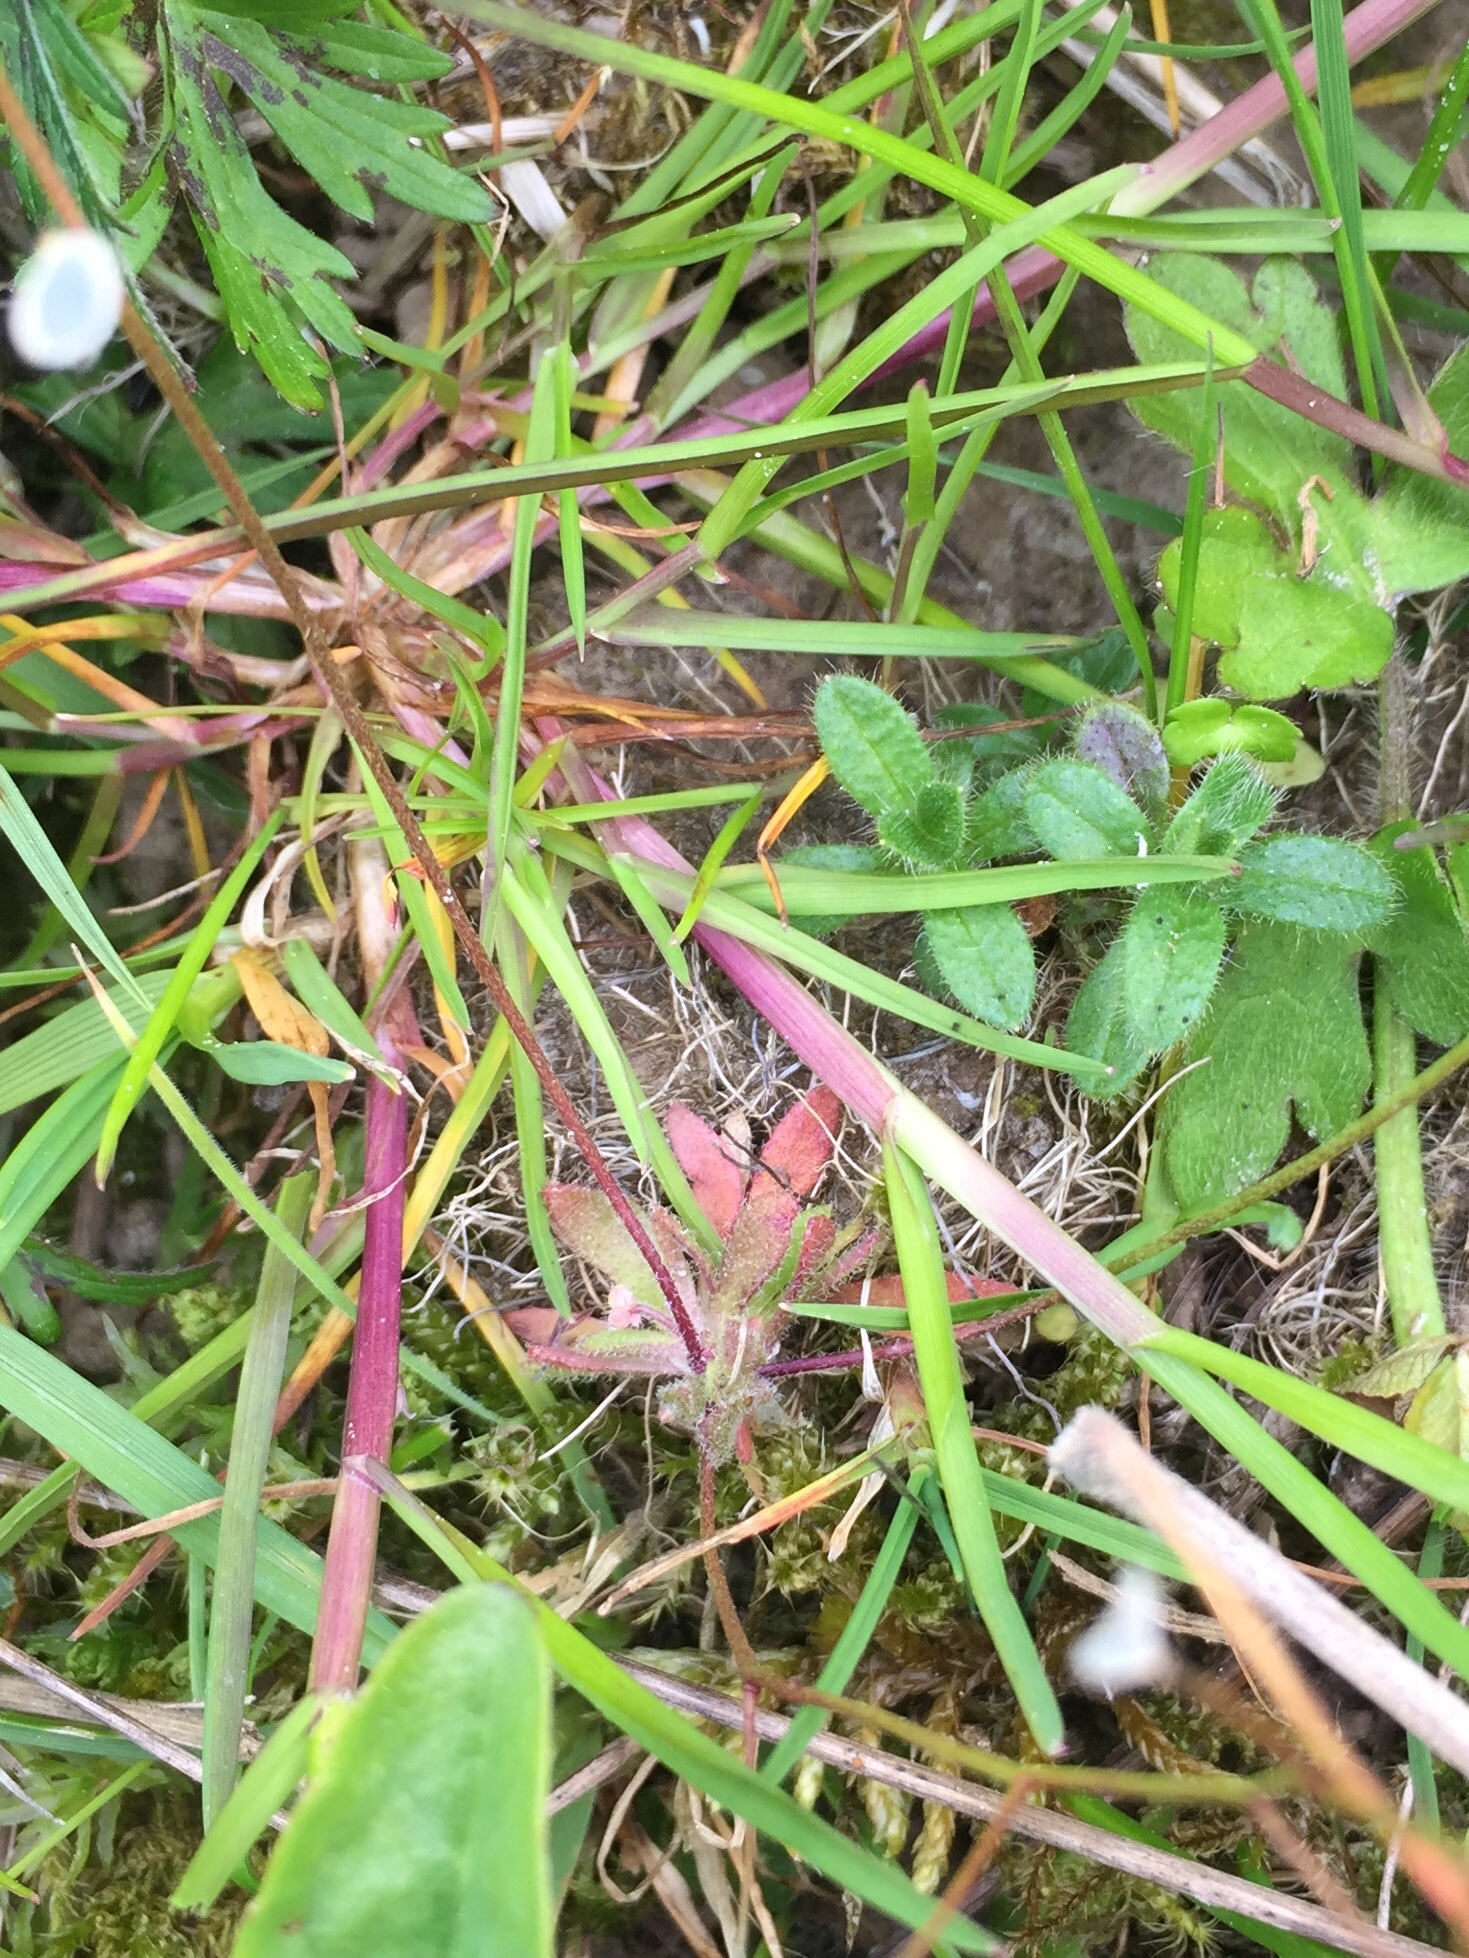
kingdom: Plantae
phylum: Tracheophyta
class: Magnoliopsida
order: Brassicales
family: Brassicaceae
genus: Draba
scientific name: Draba verna
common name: Spring draba
